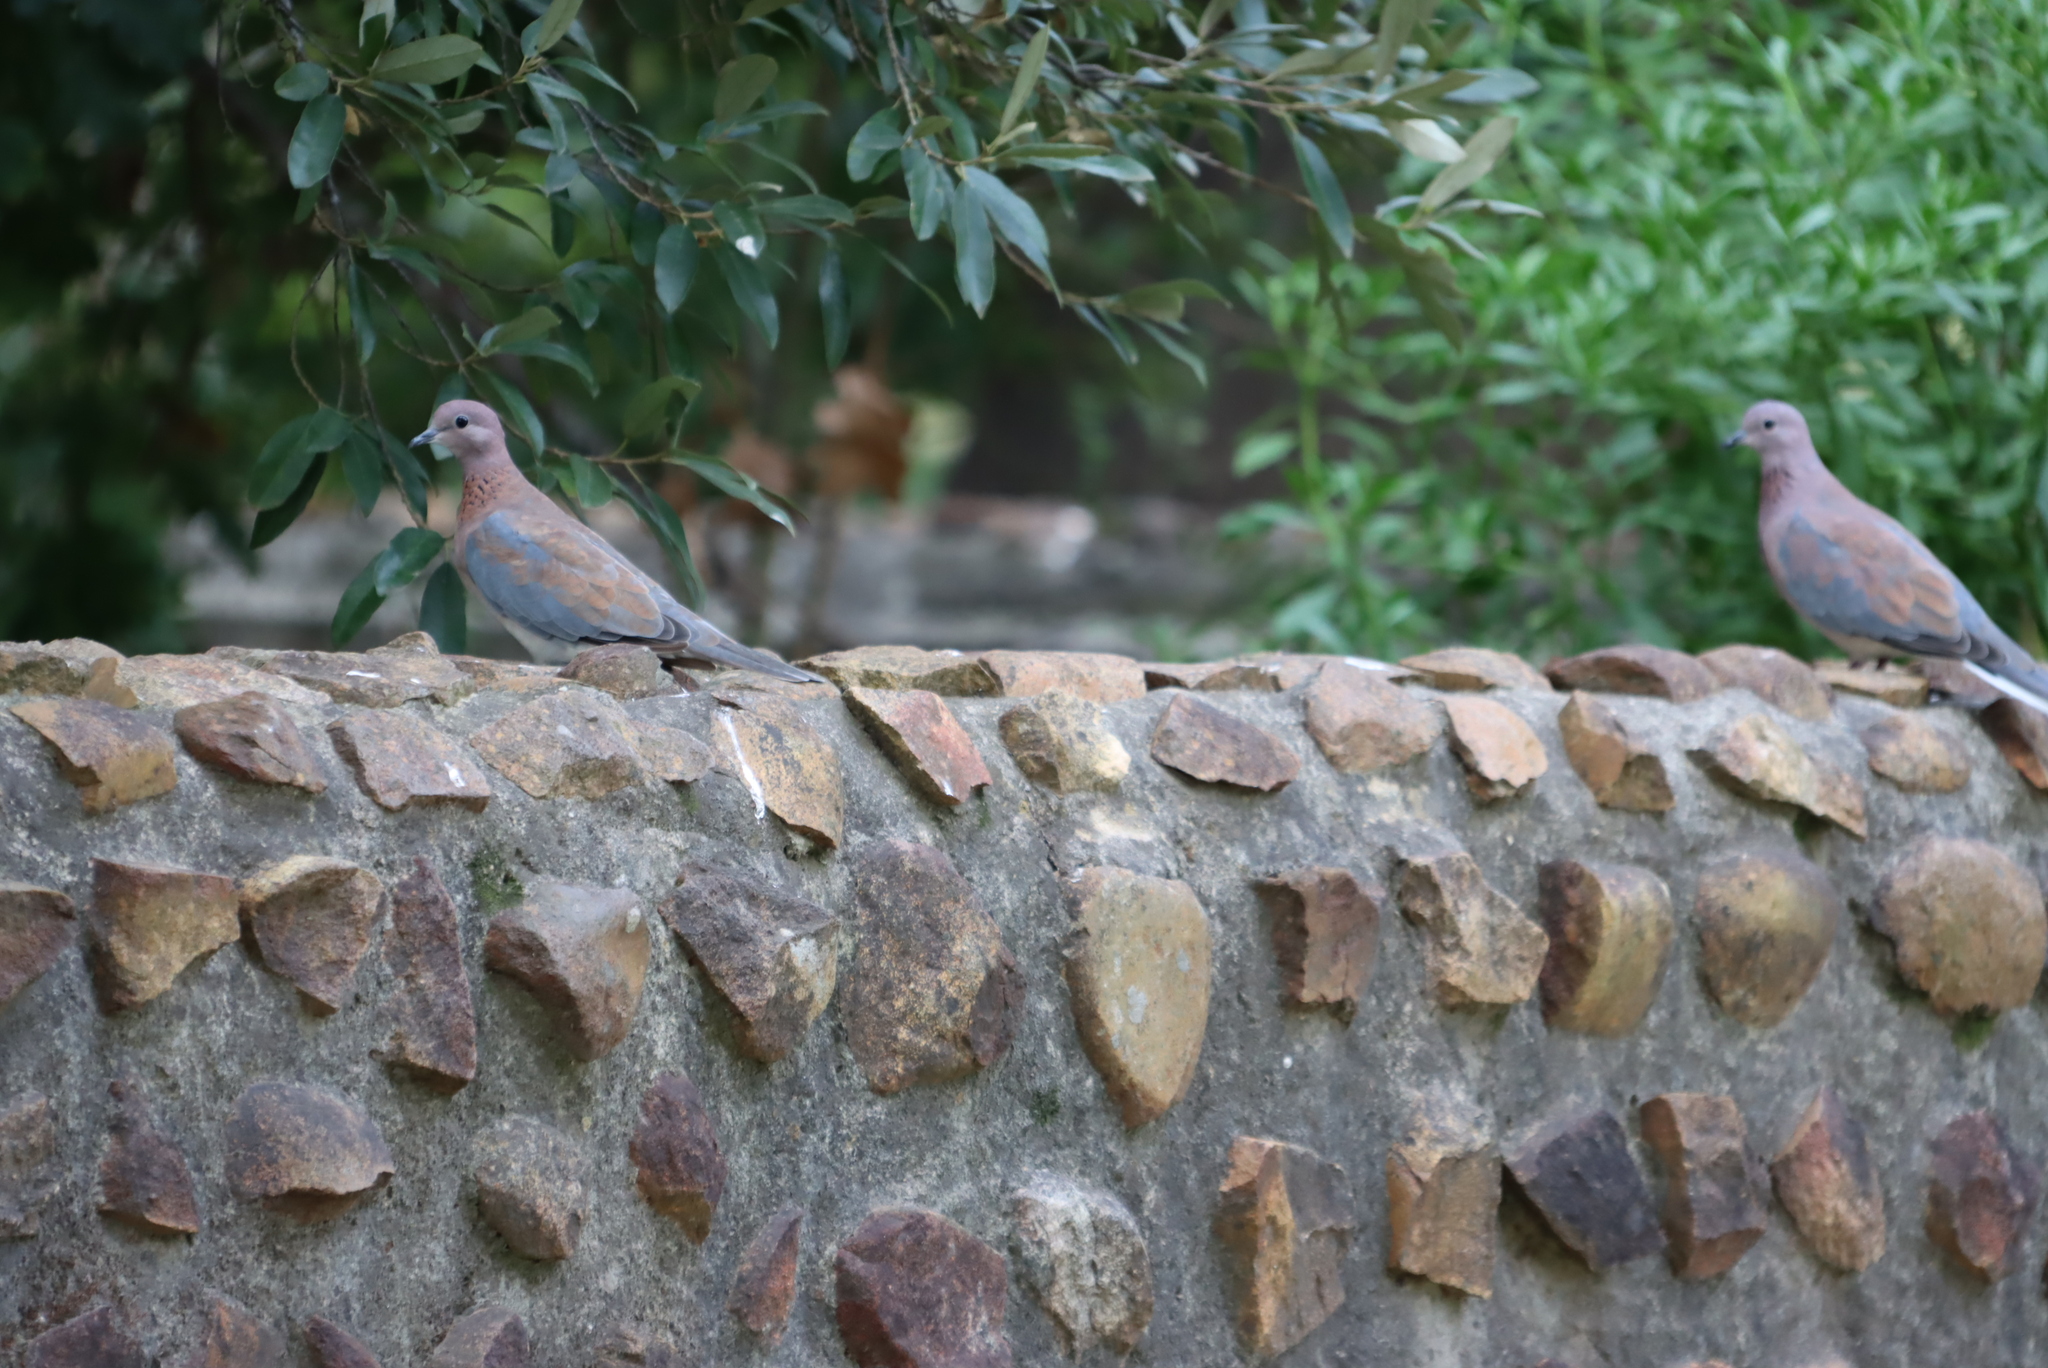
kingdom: Animalia
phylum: Chordata
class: Aves
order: Columbiformes
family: Columbidae
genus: Spilopelia
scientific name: Spilopelia senegalensis
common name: Laughing dove
